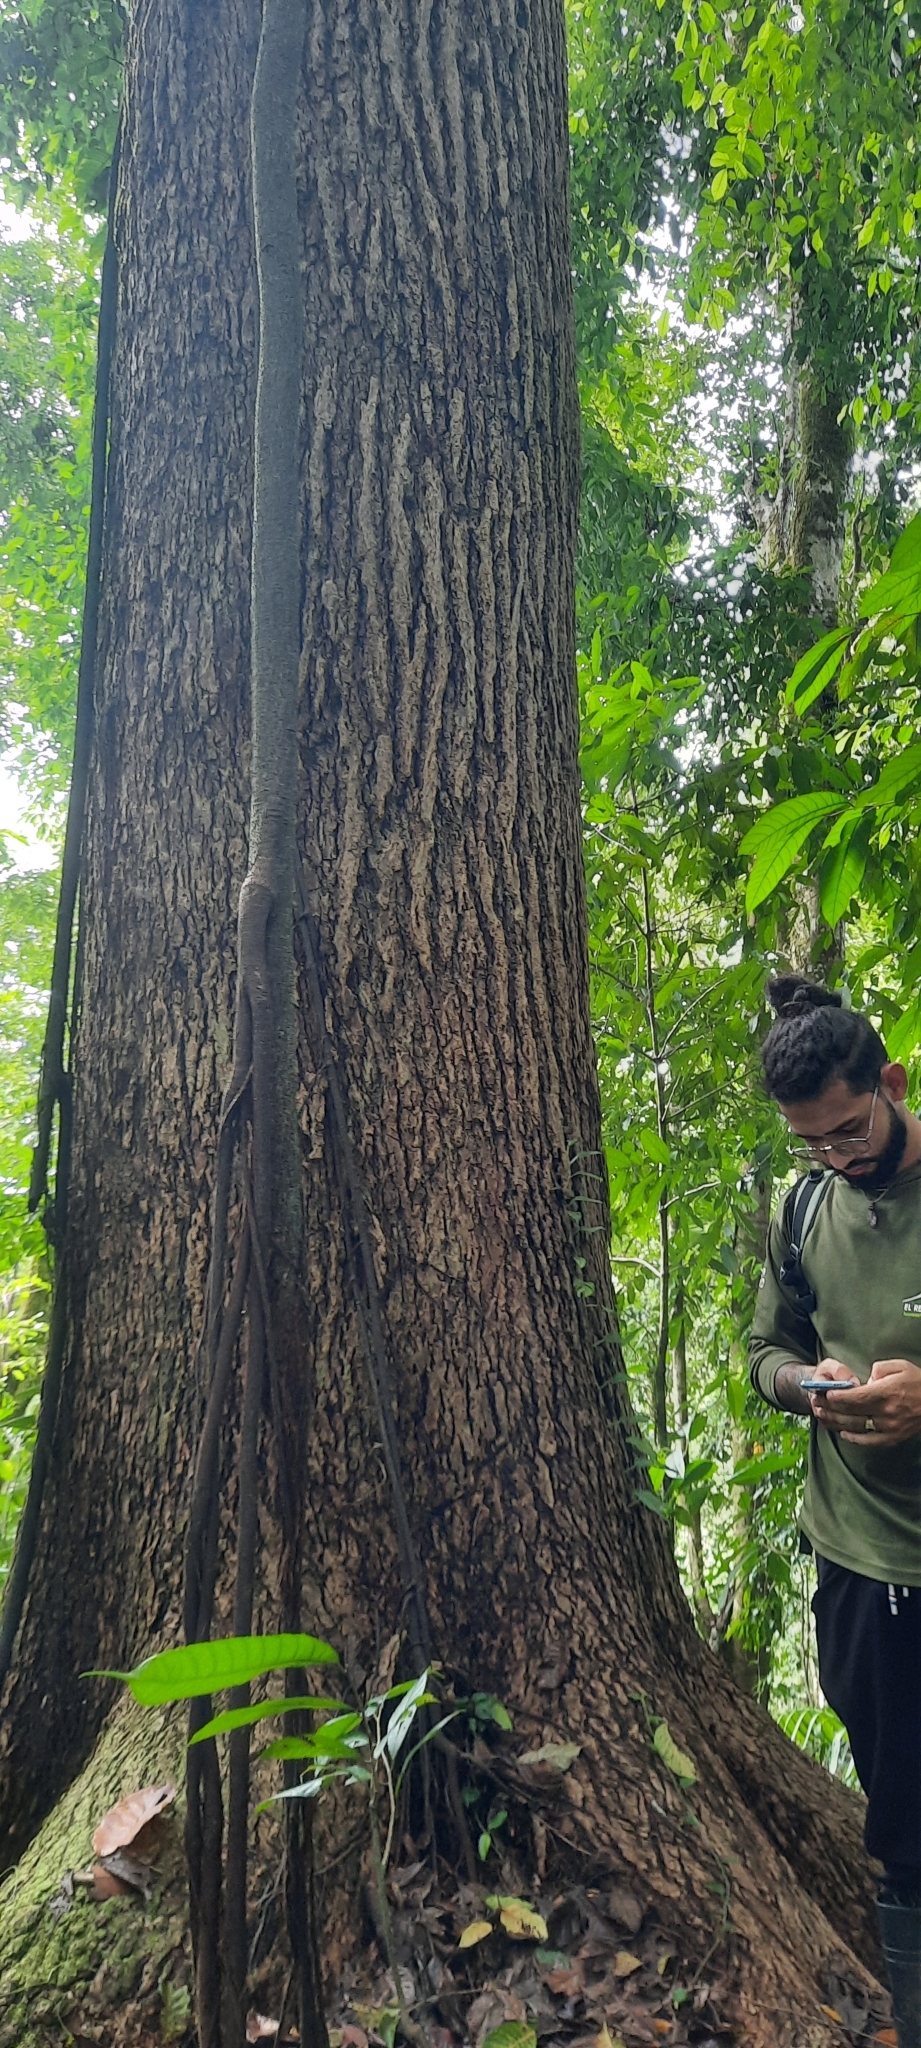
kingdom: Plantae
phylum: Tracheophyta
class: Magnoliopsida
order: Malpighiales
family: Caryocaraceae
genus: Caryocar
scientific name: Caryocar costaricense
